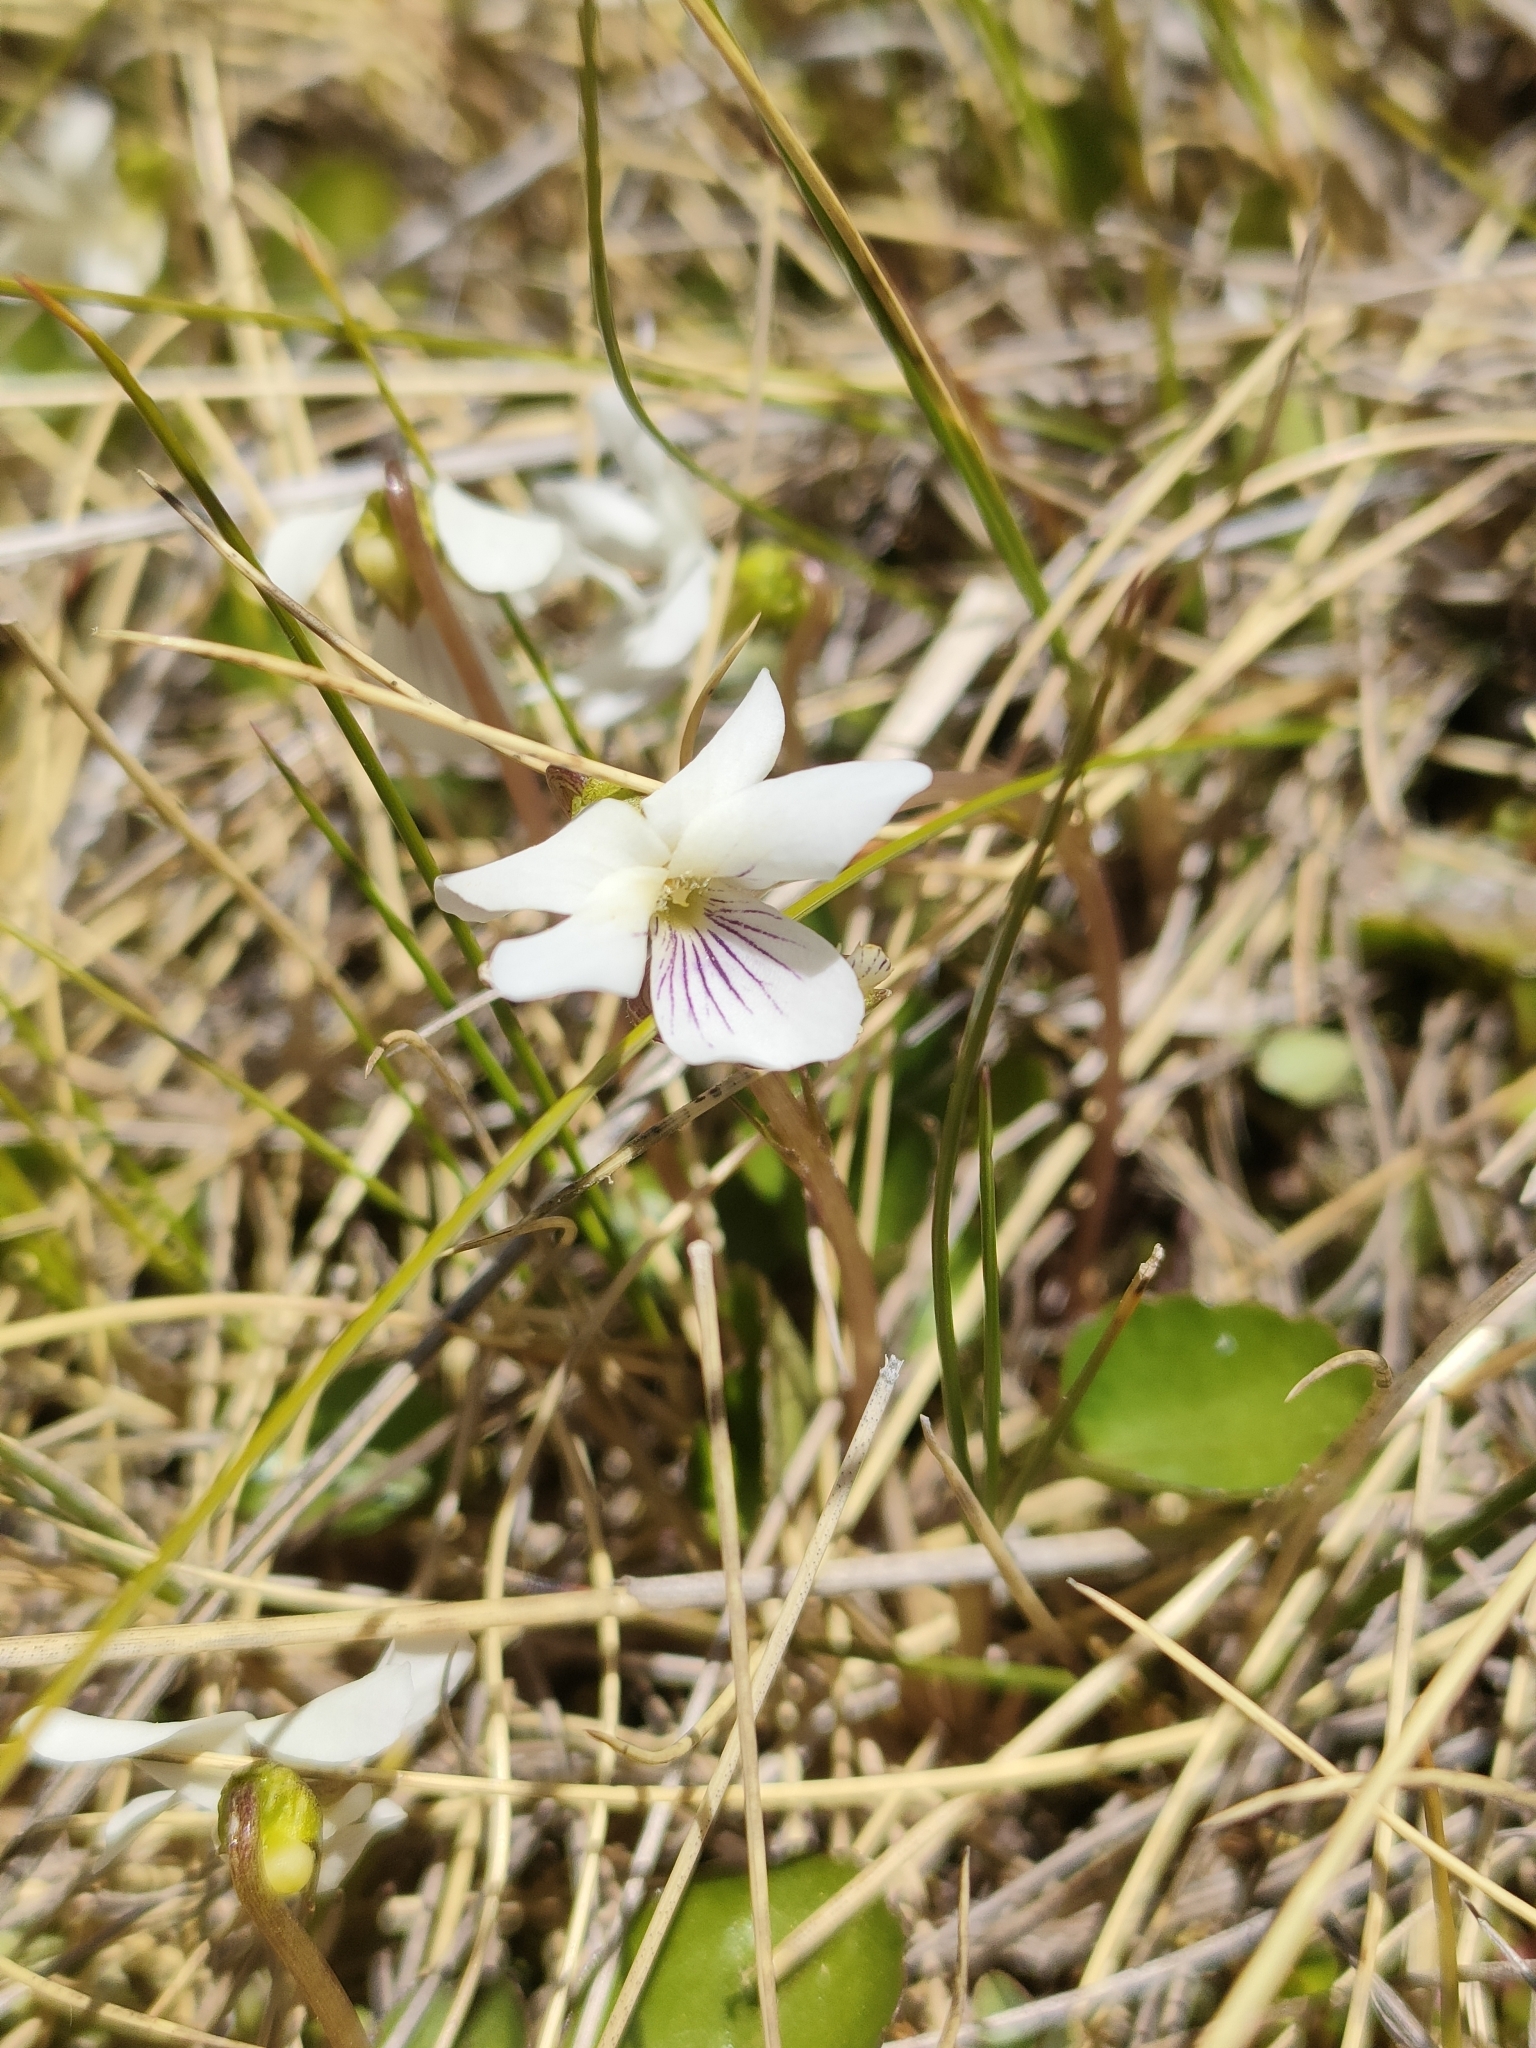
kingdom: Plantae
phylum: Tracheophyta
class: Magnoliopsida
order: Malpighiales
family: Violaceae
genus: Viola
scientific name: Viola cunninghamii
